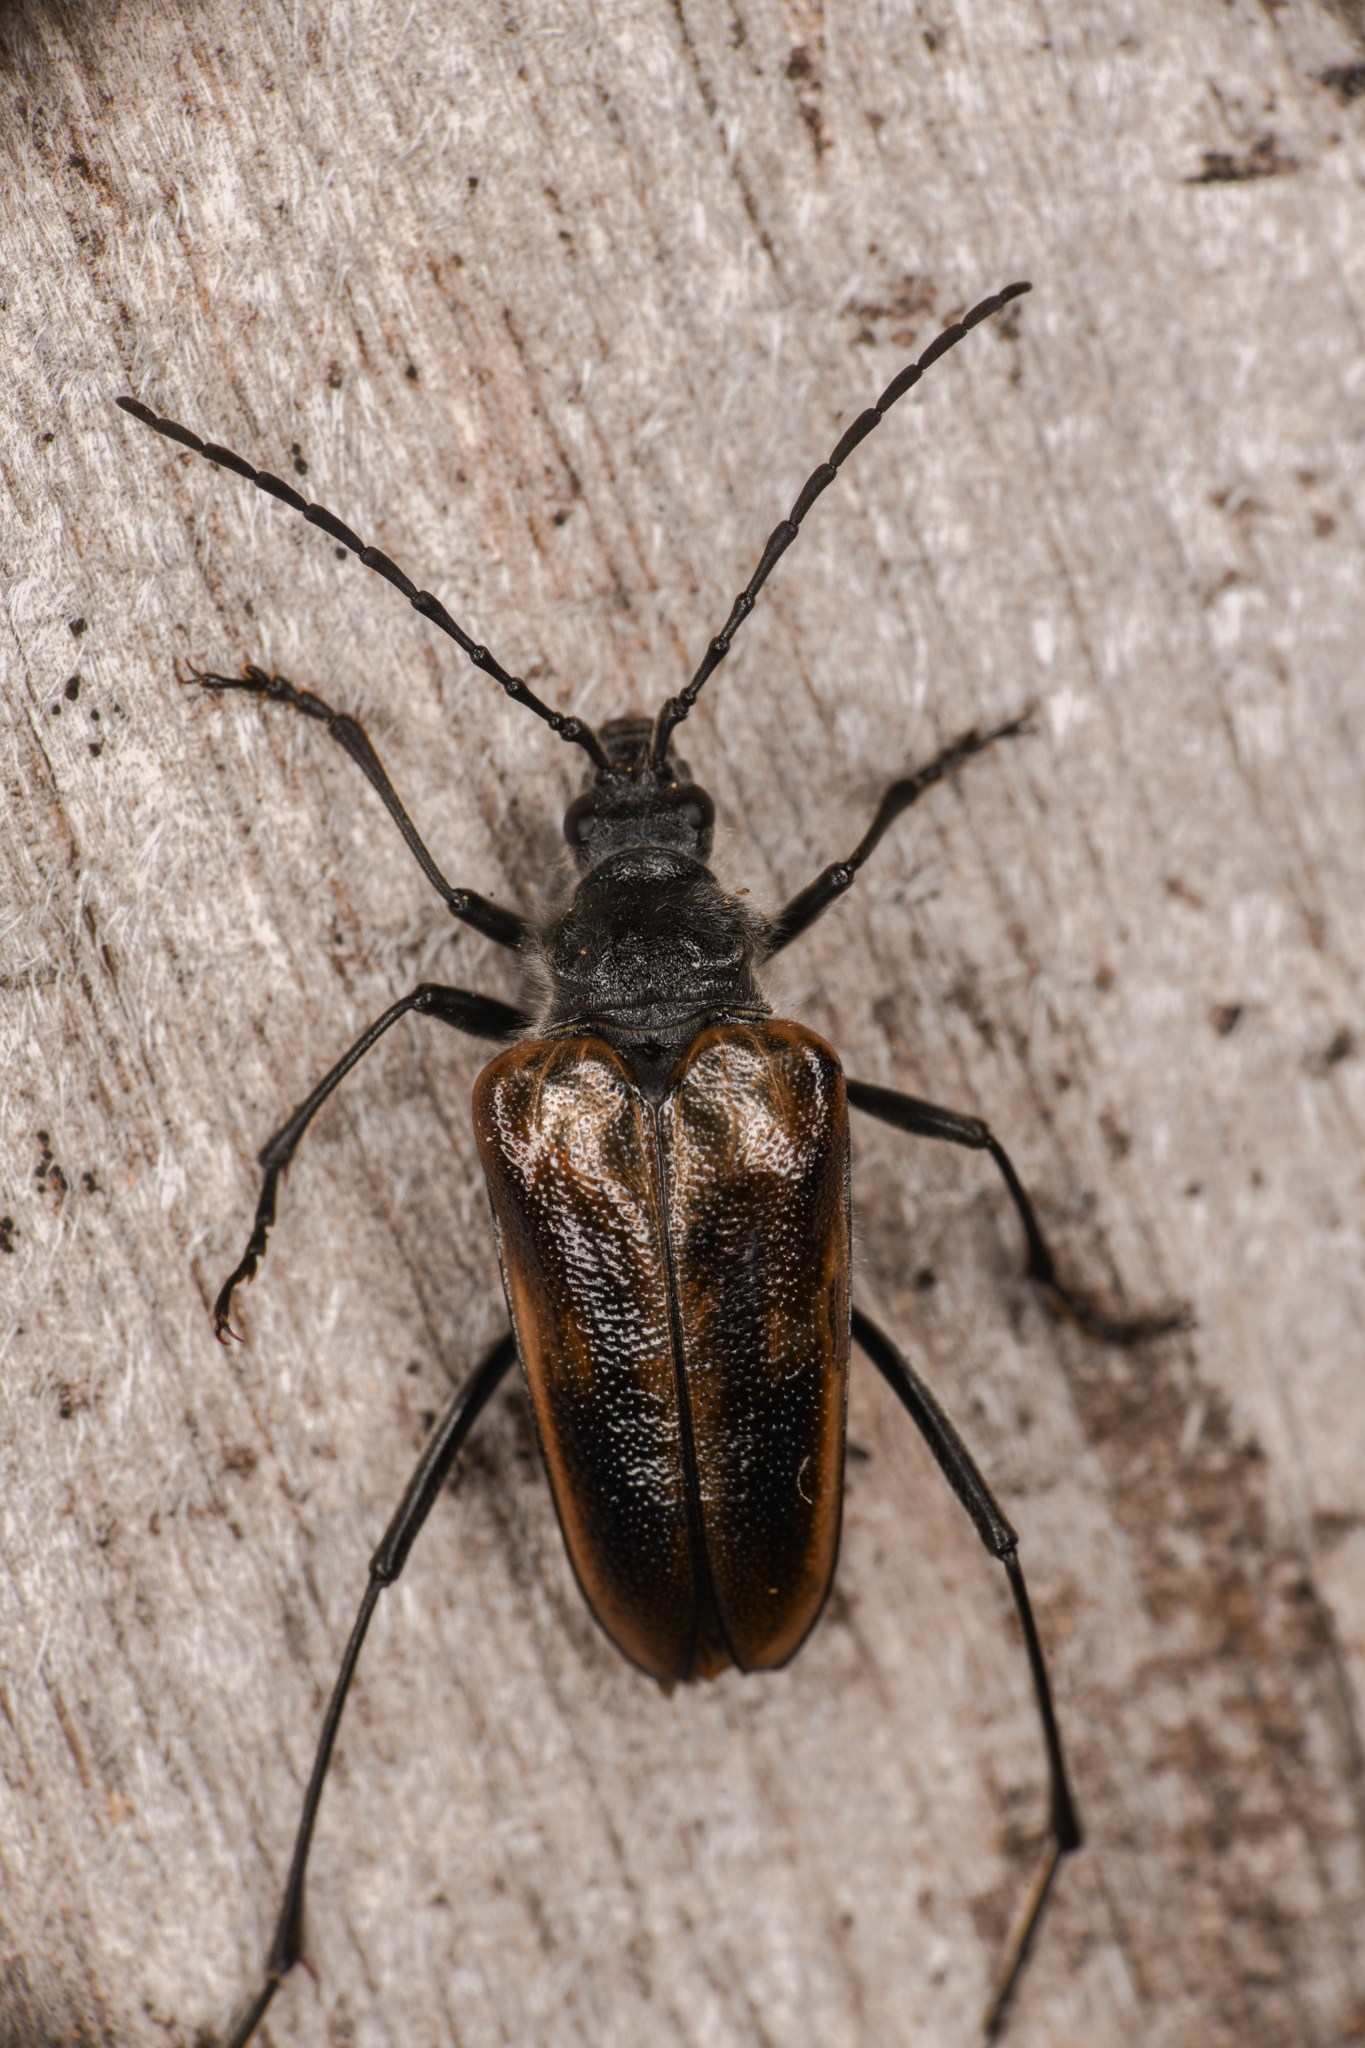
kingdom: Animalia
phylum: Arthropoda
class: Insecta
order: Coleoptera
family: Cerambycidae
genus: Pachyta
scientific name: Pachyta lamed
